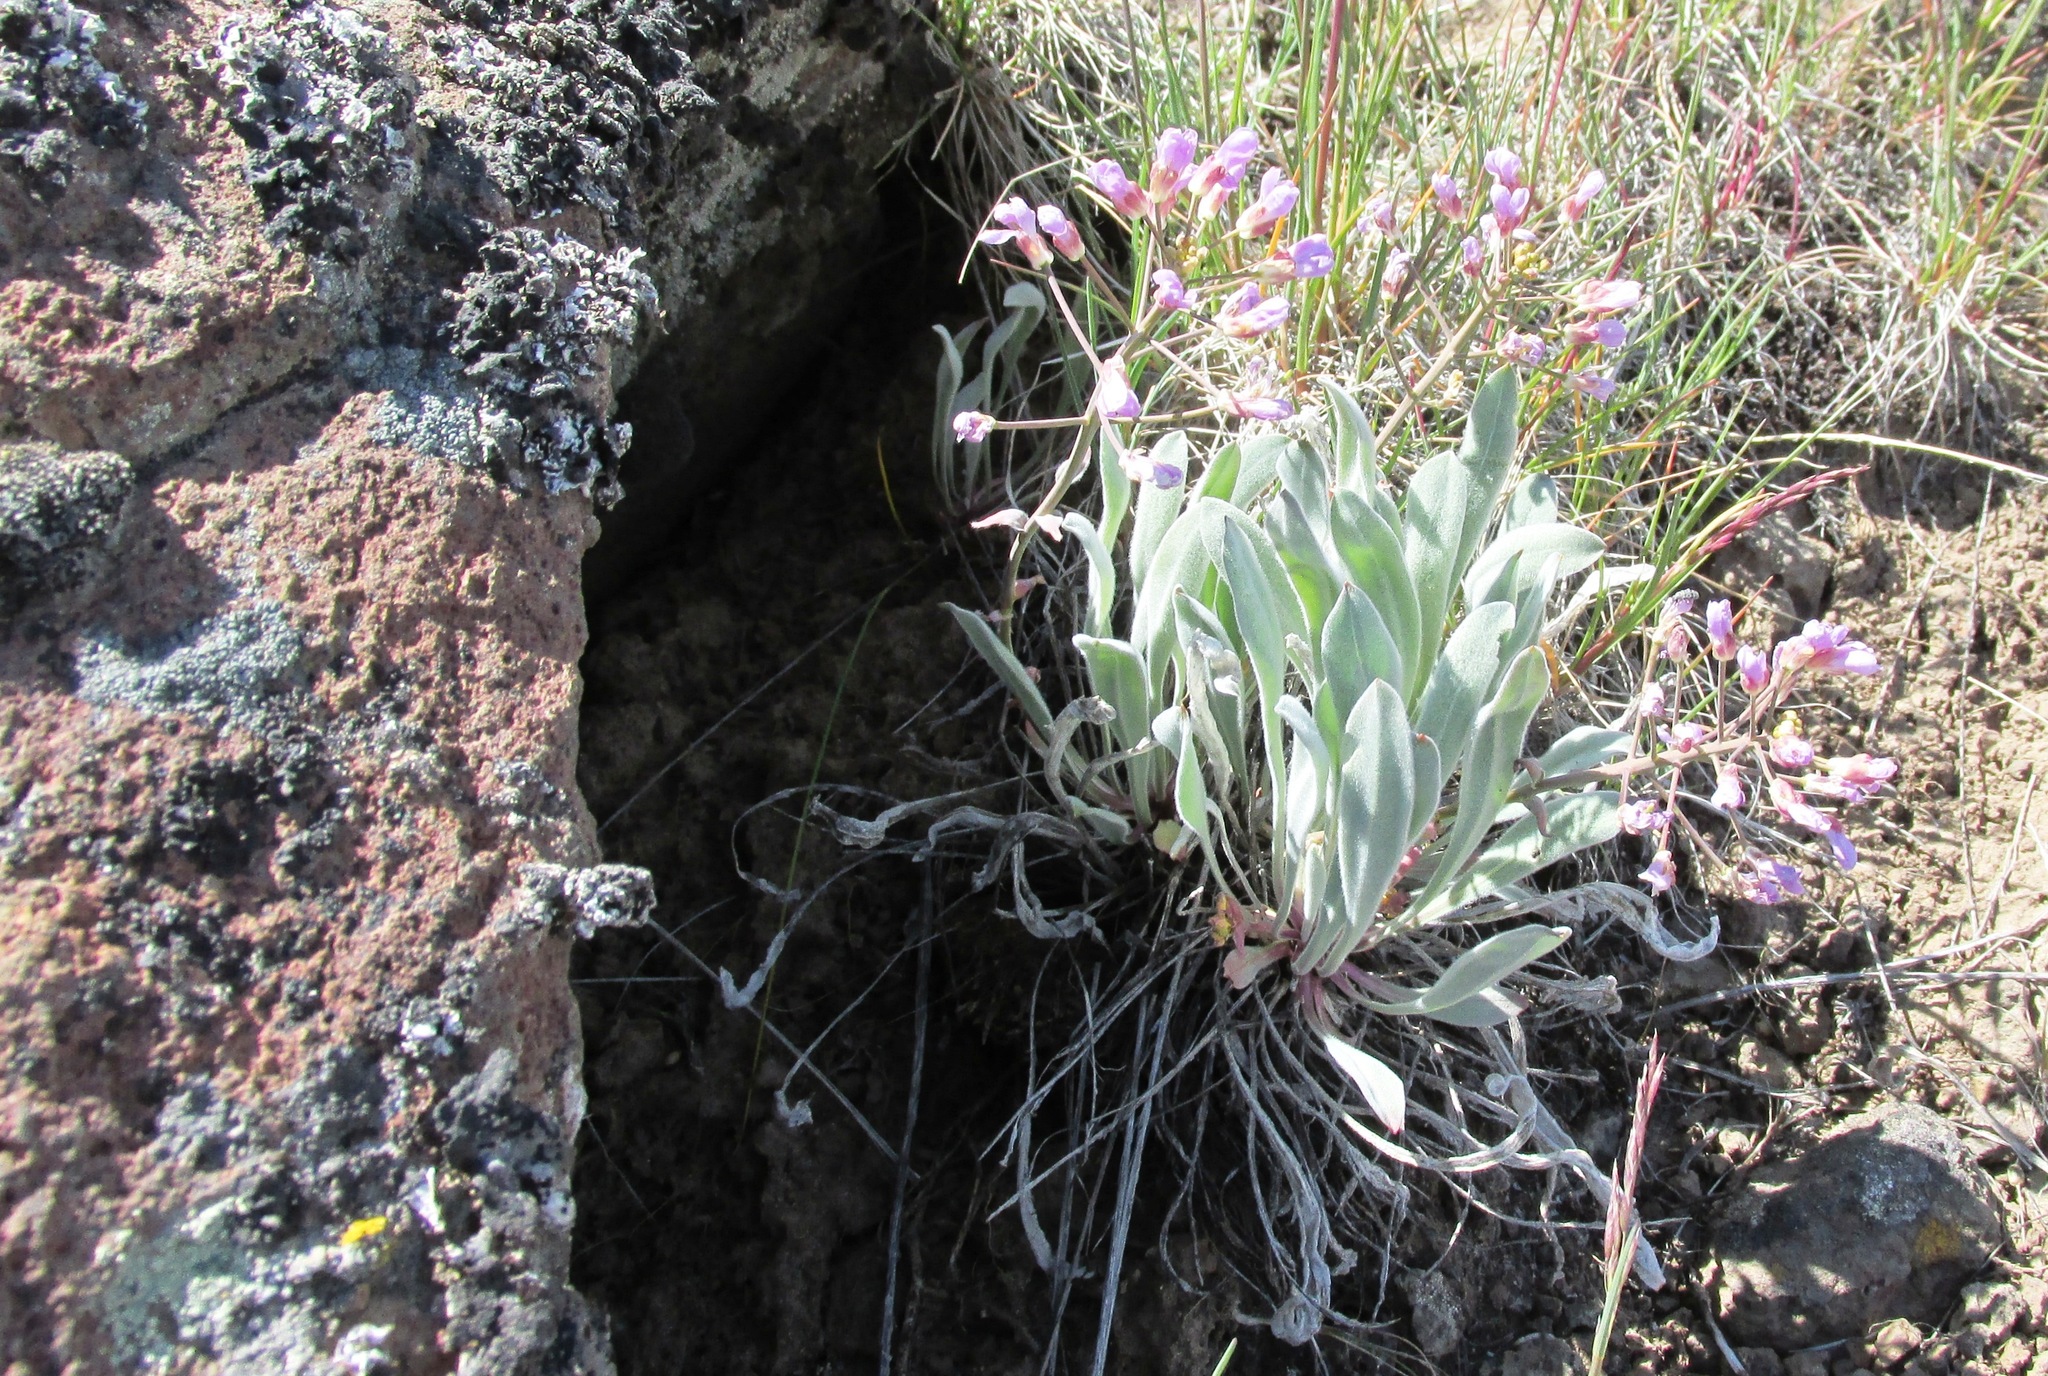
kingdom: Plantae
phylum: Tracheophyta
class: Magnoliopsida
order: Brassicales
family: Brassicaceae
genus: Phoenicaulis
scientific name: Phoenicaulis cheiranthoides
